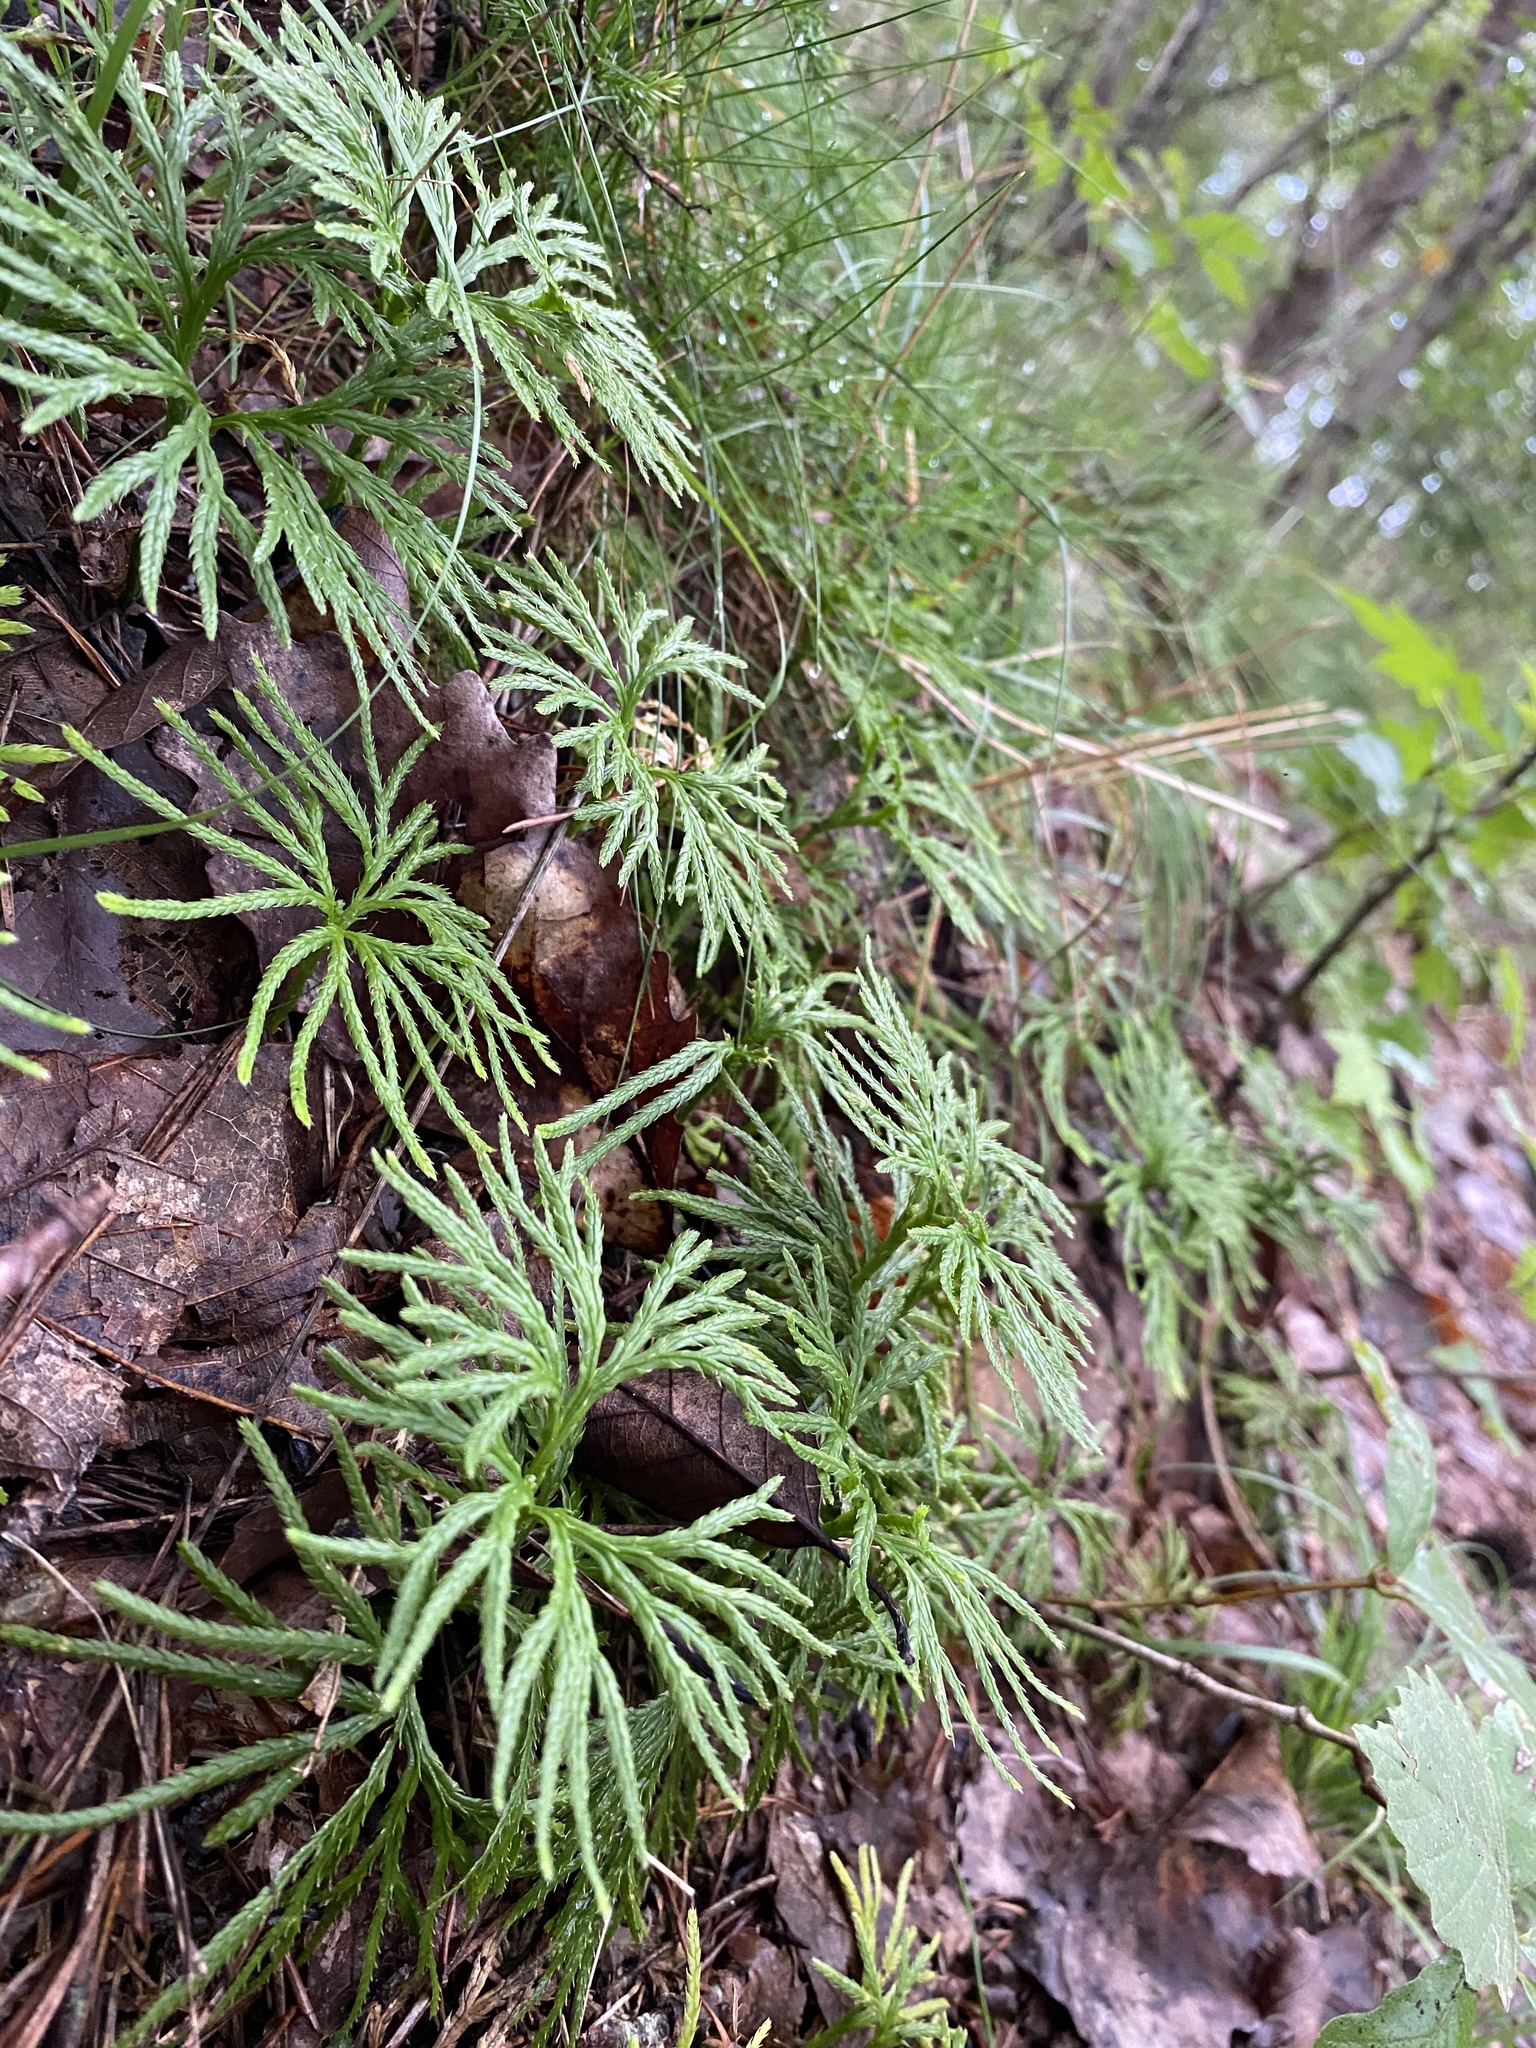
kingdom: Plantae
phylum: Tracheophyta
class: Lycopodiopsida
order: Lycopodiales
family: Lycopodiaceae
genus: Diphasiastrum
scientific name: Diphasiastrum digitatum
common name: Southern running-pine
